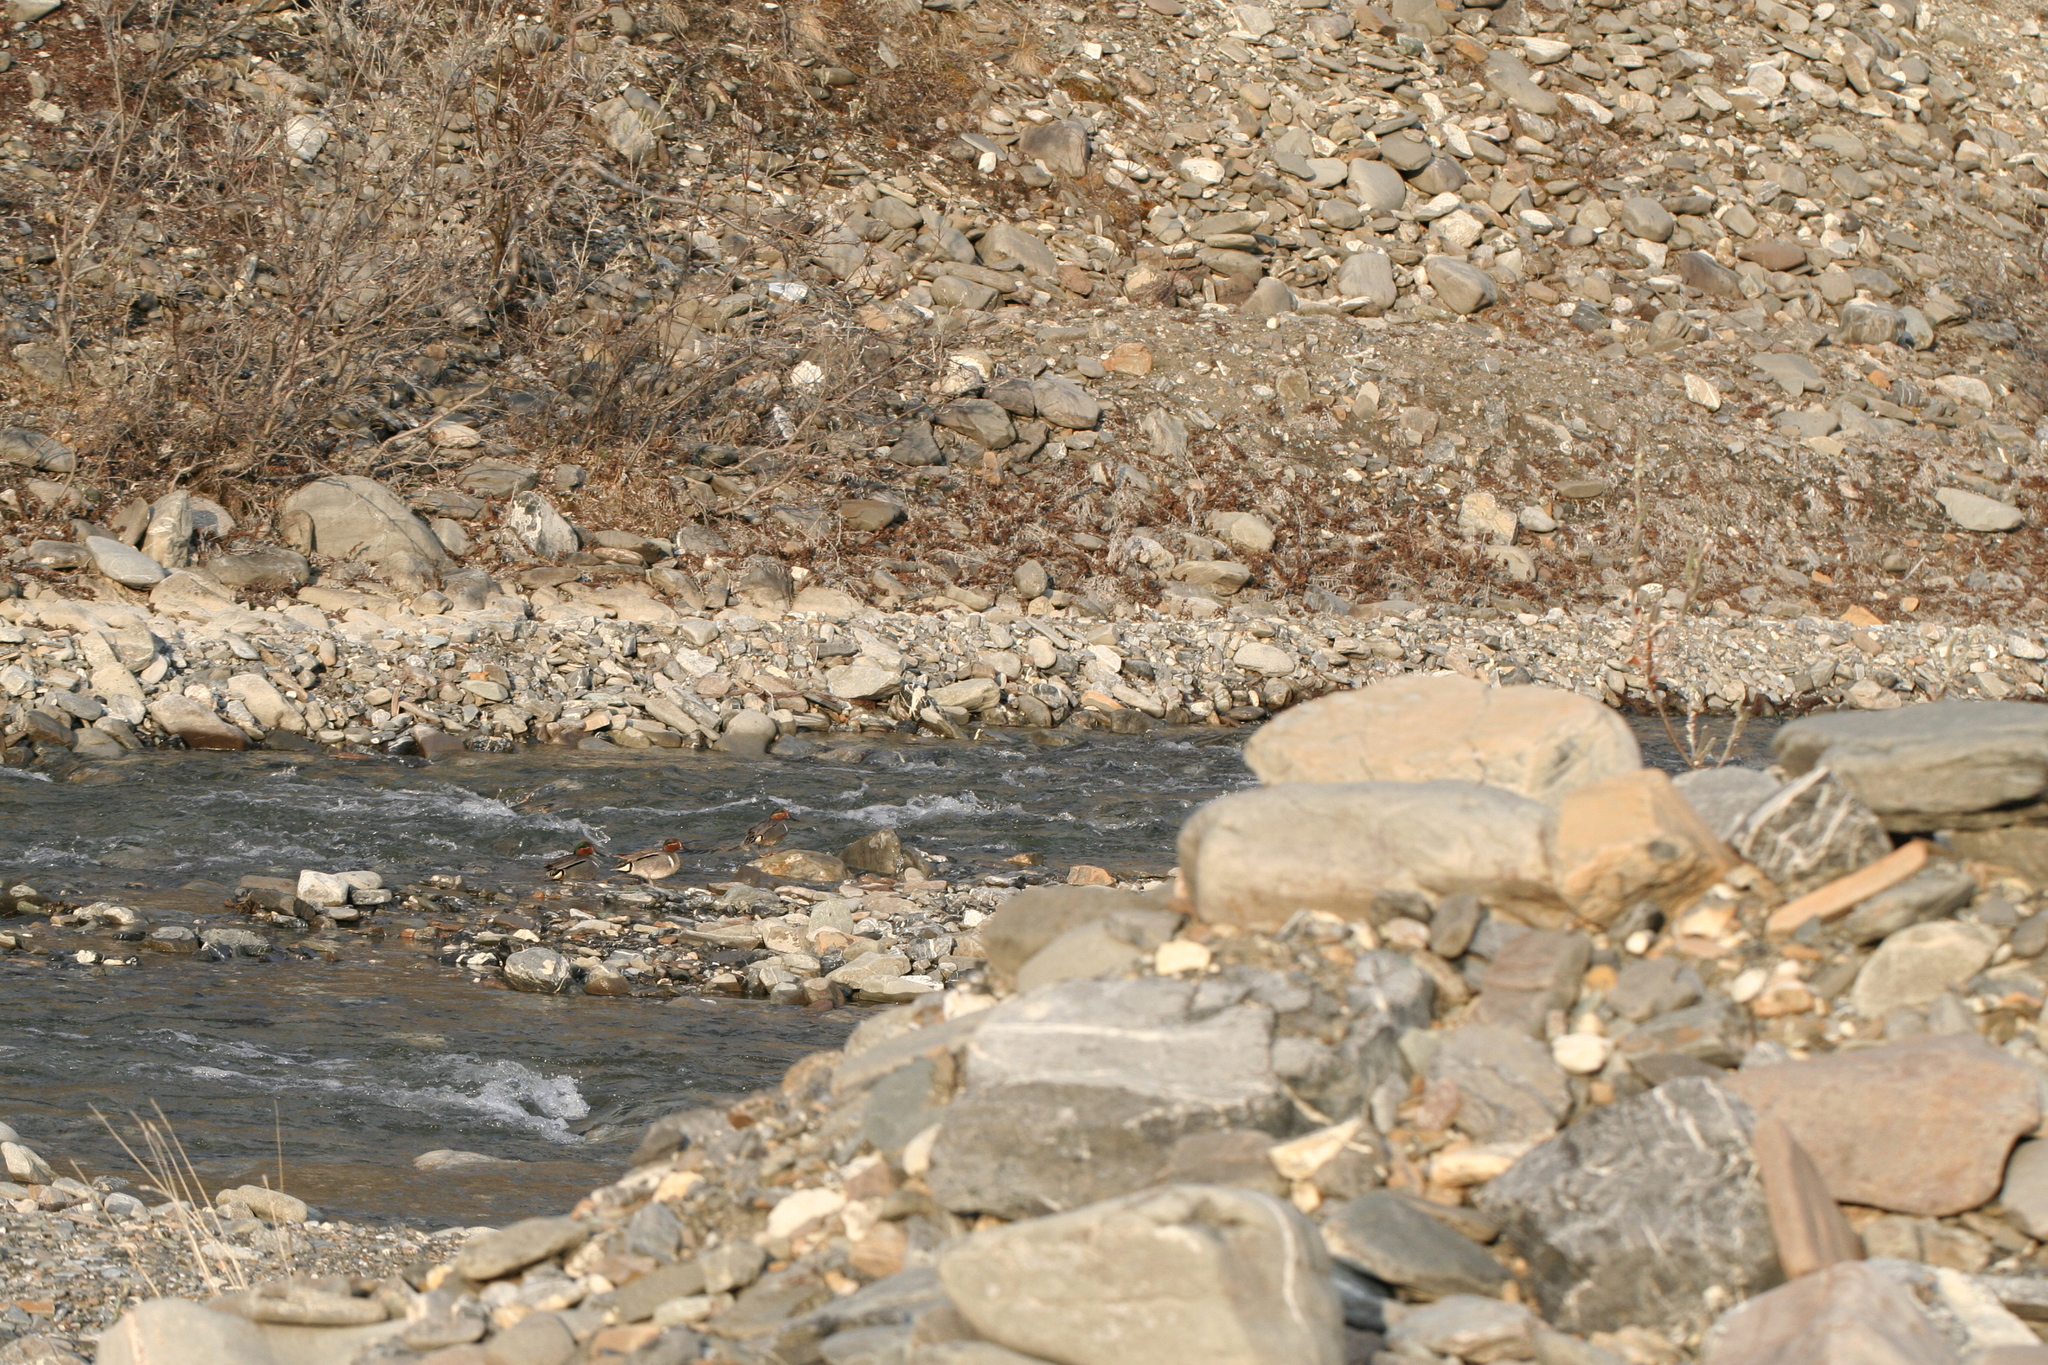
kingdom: Animalia
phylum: Chordata
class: Aves
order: Anseriformes
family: Anatidae
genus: Anas
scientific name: Anas crecca
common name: Eurasian teal
